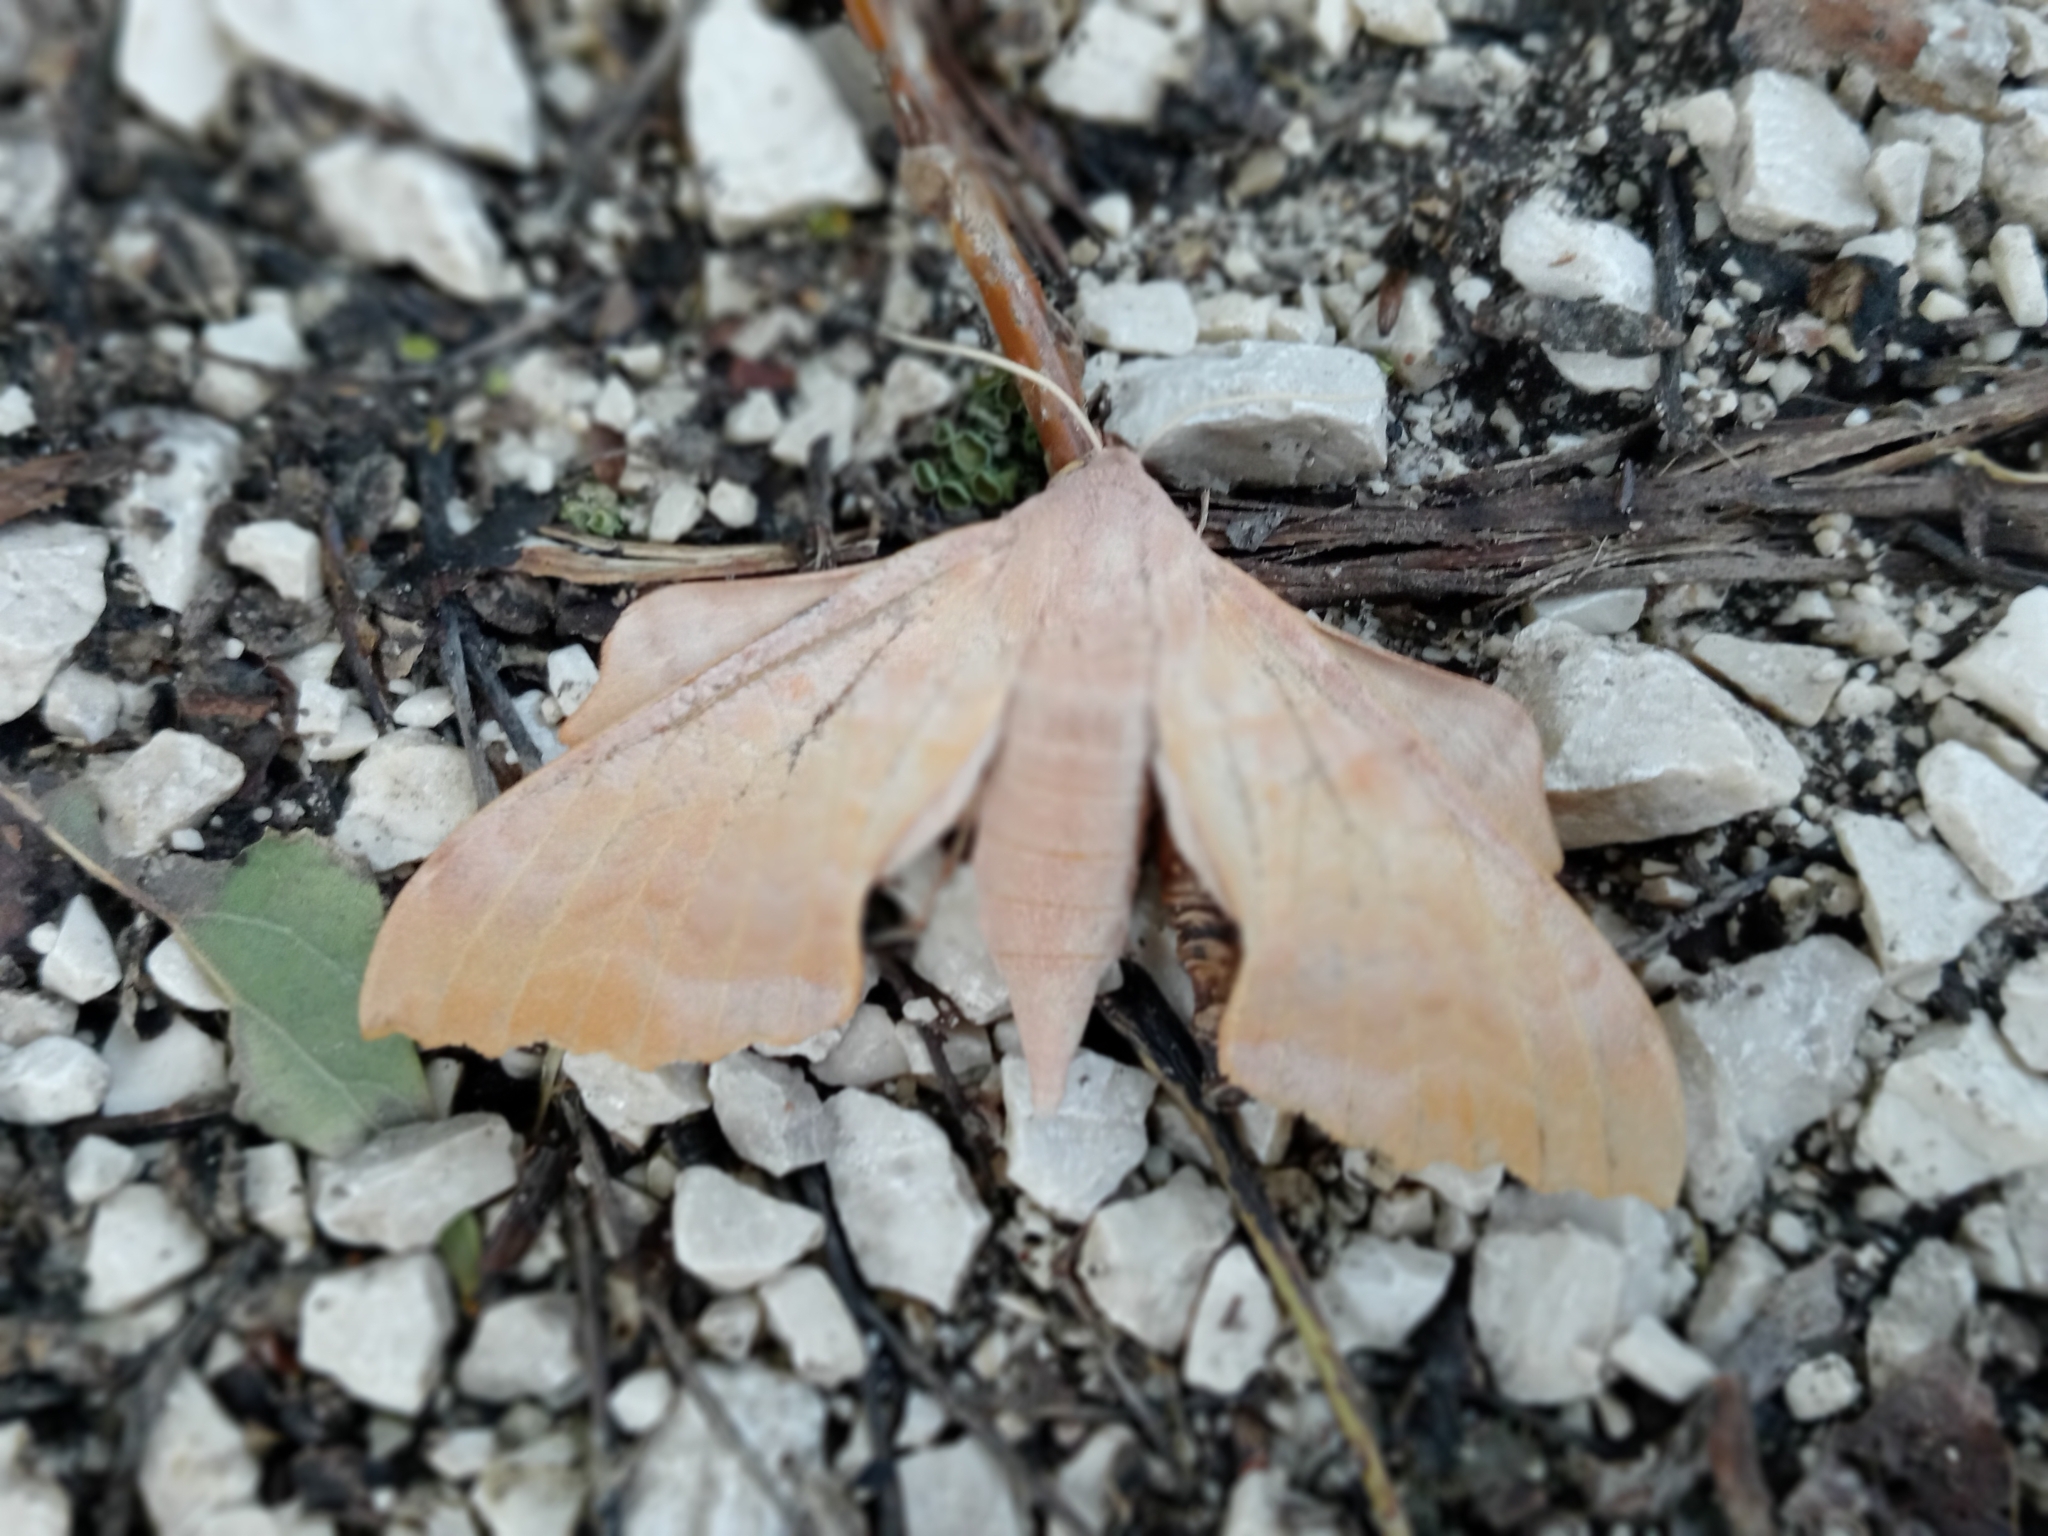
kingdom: Animalia
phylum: Arthropoda
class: Insecta
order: Lepidoptera
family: Sphingidae
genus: Laothoe
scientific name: Laothoe populi
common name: Poplar hawk-moth
